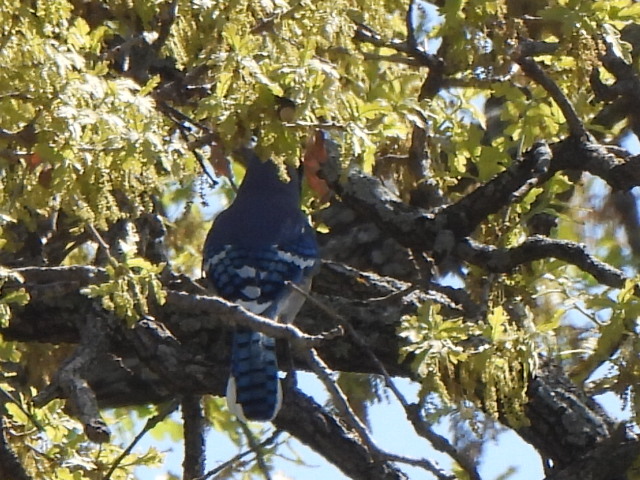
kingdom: Animalia
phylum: Chordata
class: Aves
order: Passeriformes
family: Corvidae
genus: Cyanocitta
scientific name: Cyanocitta cristata
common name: Blue jay
